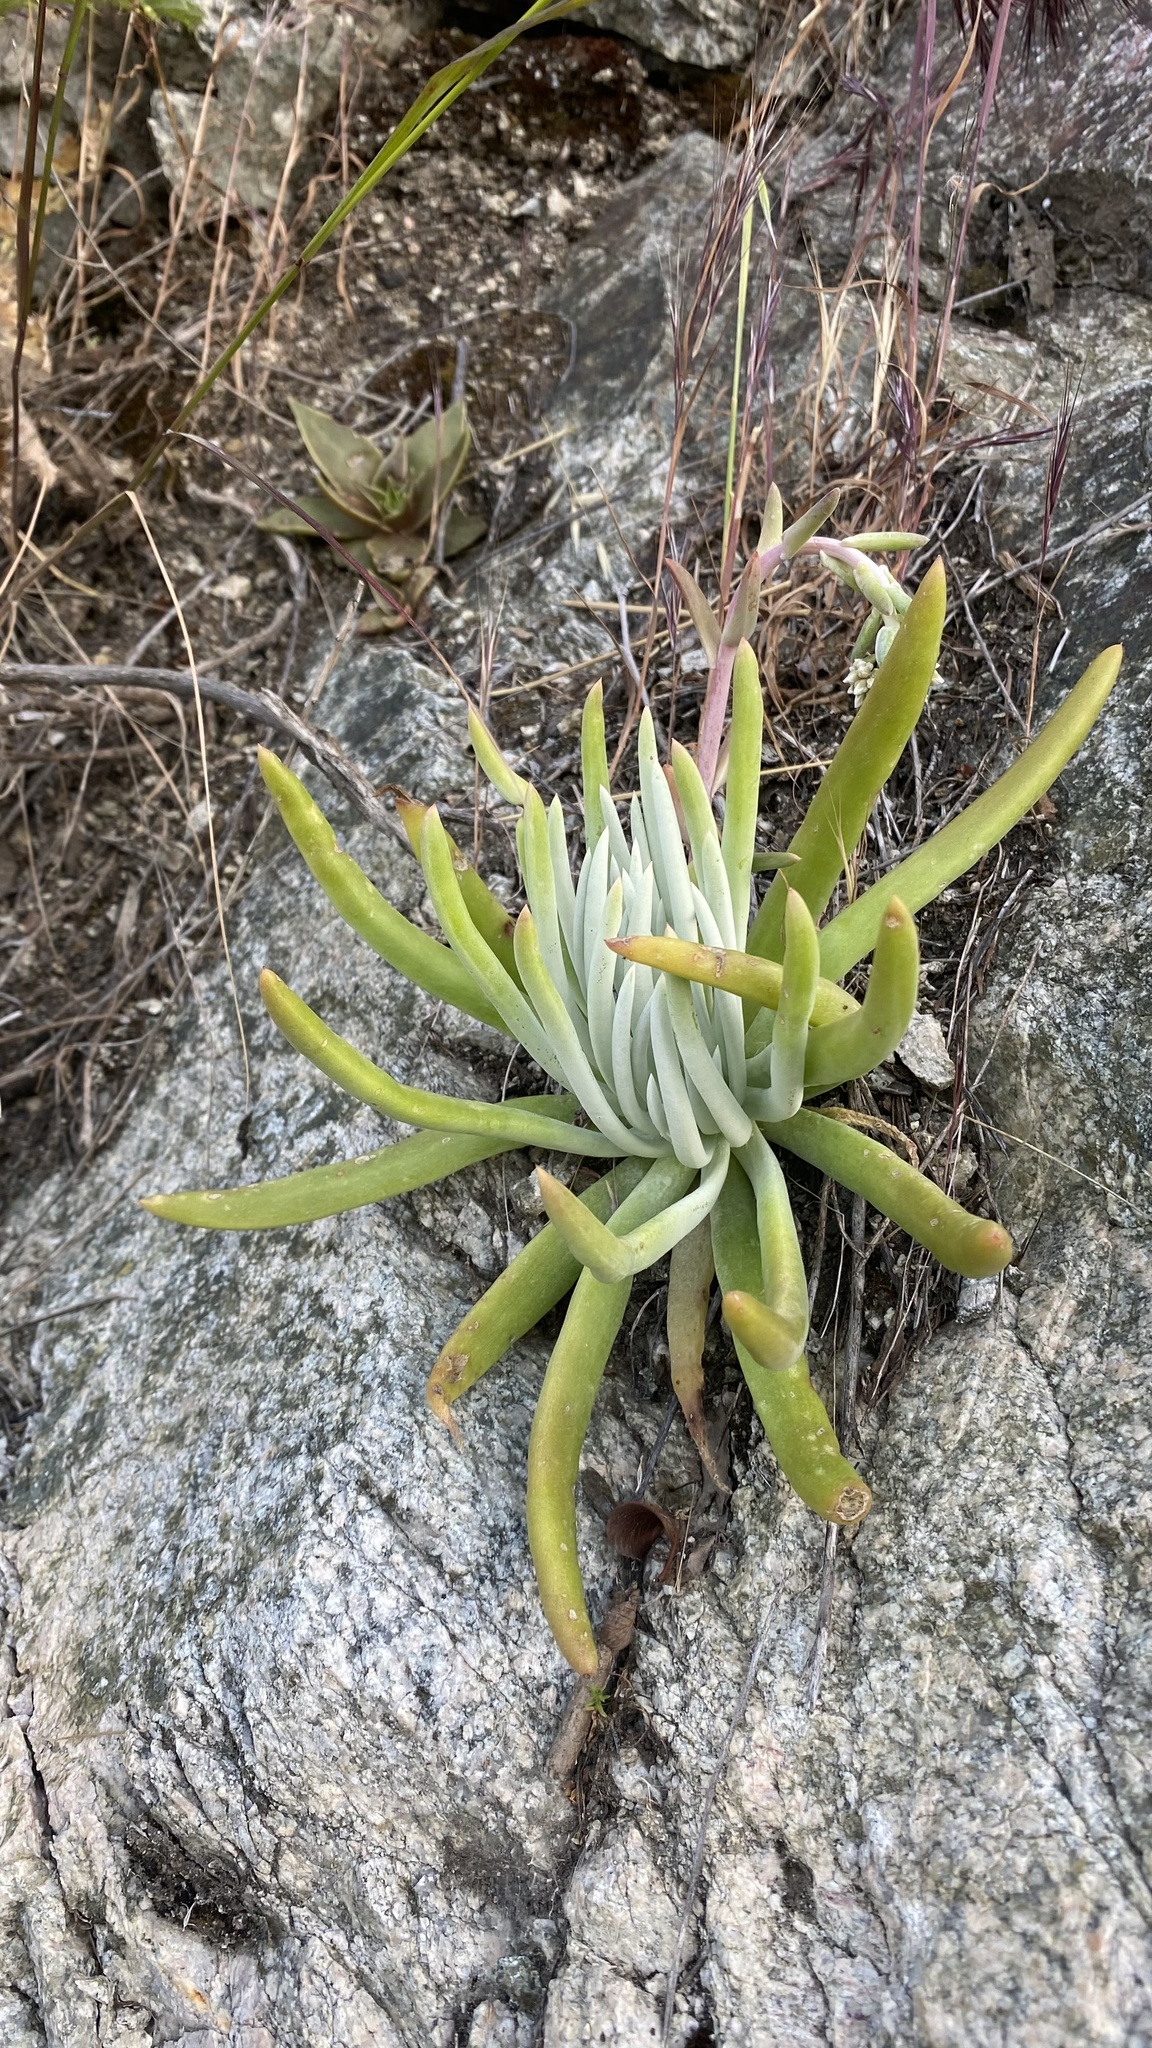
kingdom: Plantae
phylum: Tracheophyta
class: Magnoliopsida
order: Saxifragales
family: Crassulaceae
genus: Dudleya
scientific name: Dudleya densiflora
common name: San gabriel mountains dudleya
